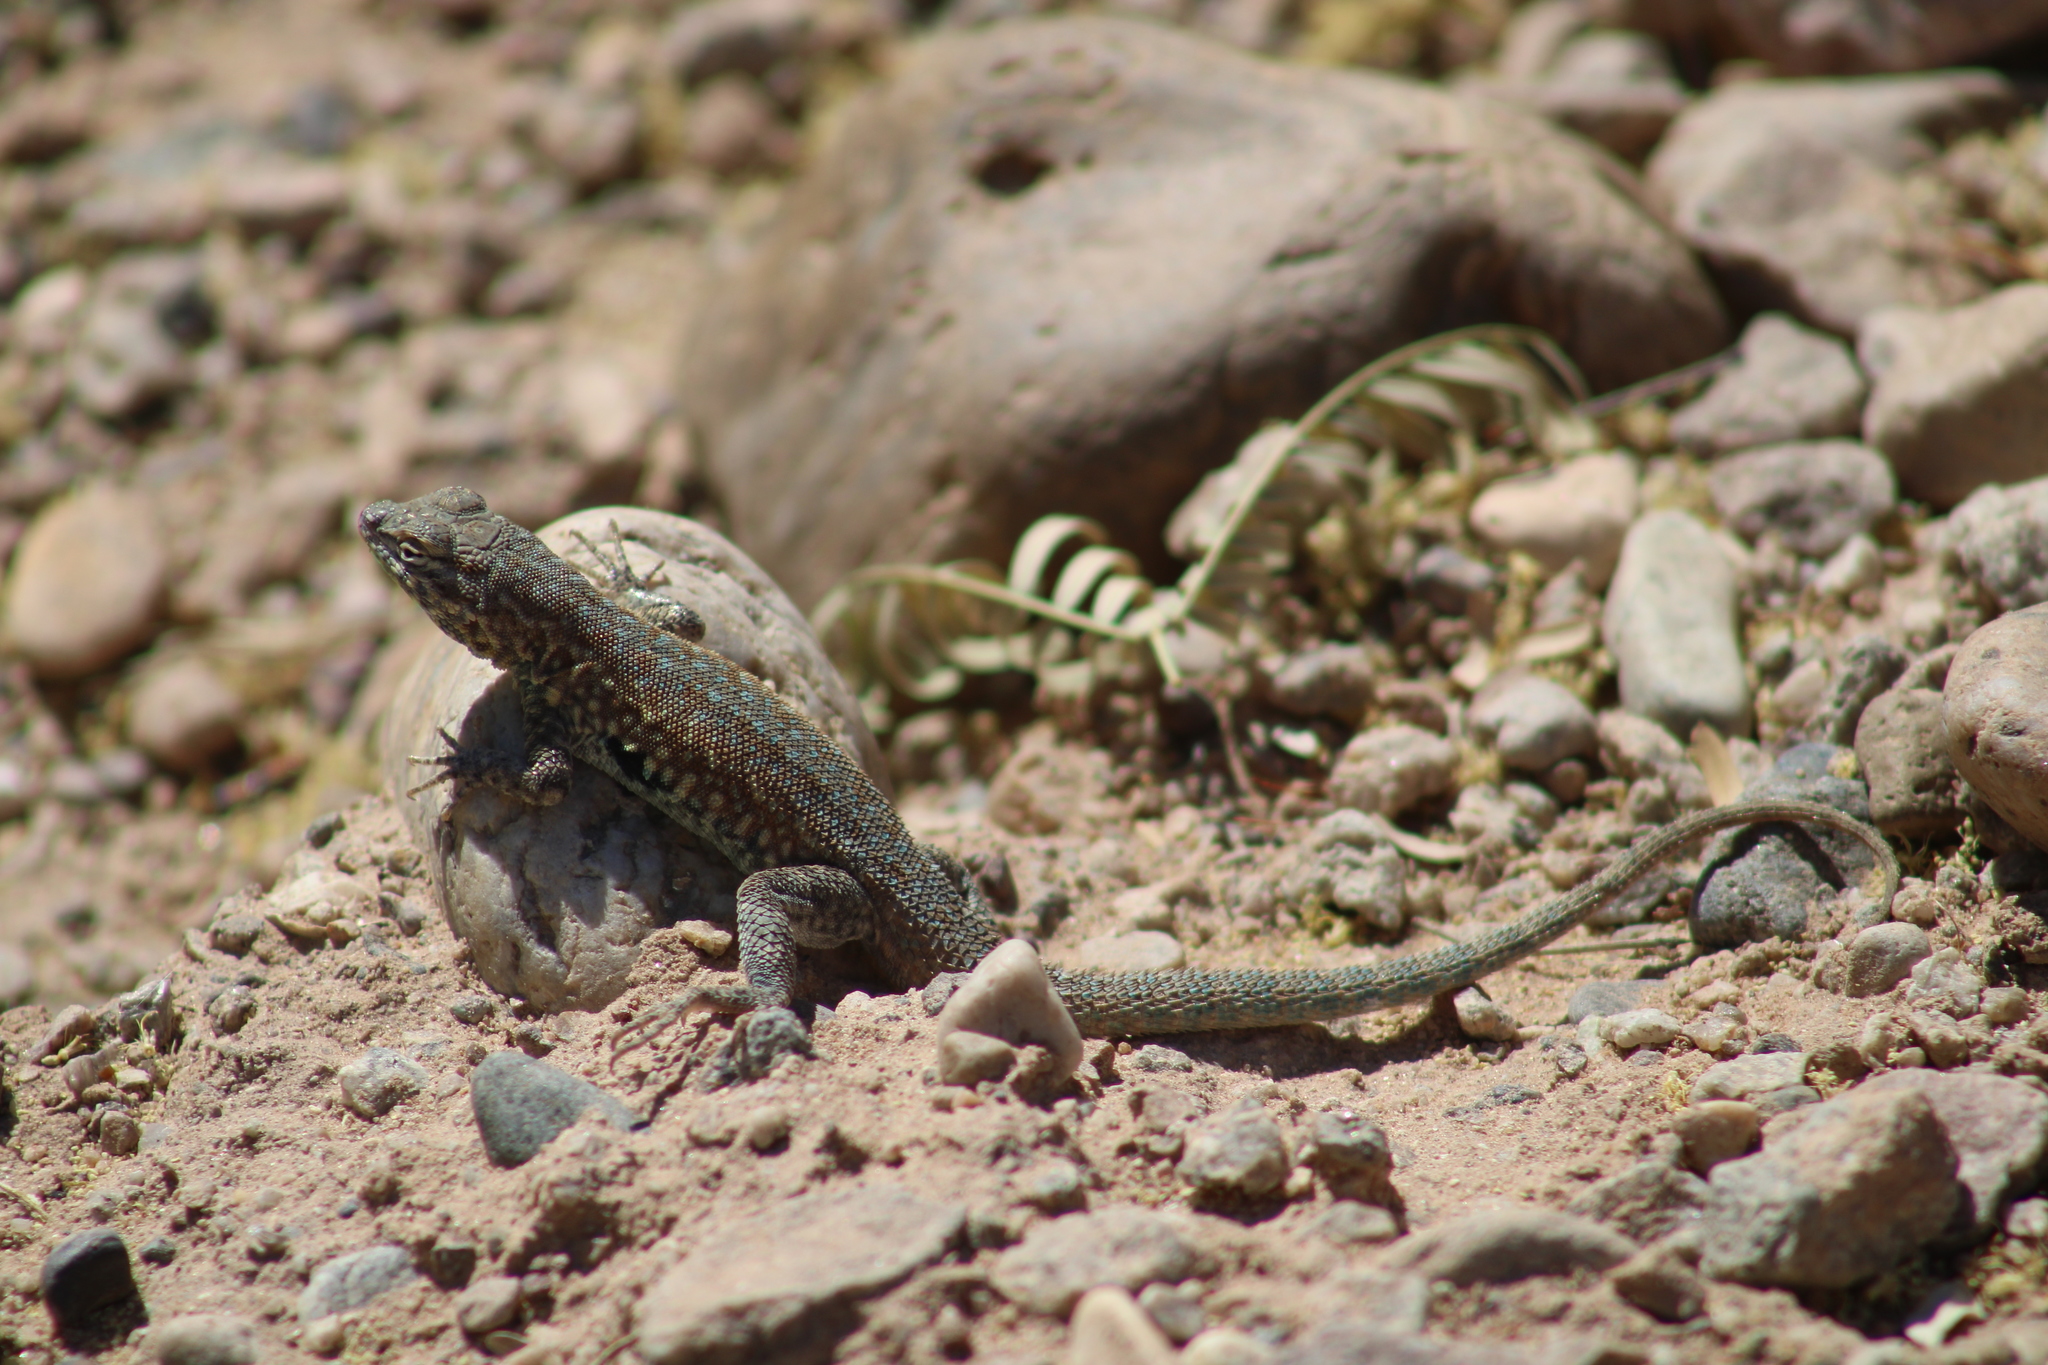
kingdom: Animalia
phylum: Chordata
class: Squamata
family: Phrynosomatidae
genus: Uta
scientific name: Uta stansburiana
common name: Side-blotched lizard
